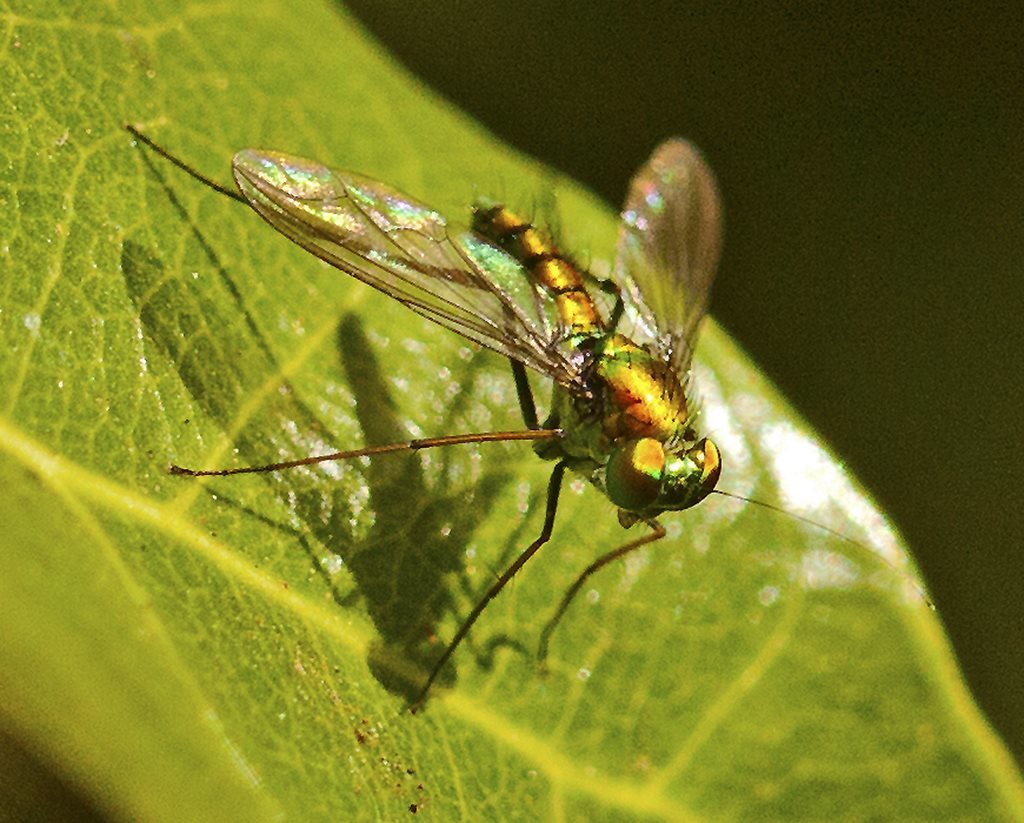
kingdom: Animalia
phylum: Arthropoda
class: Insecta
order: Diptera
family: Dolichopodidae
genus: Chrysosoma
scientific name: Chrysosoma pseudocallosum
